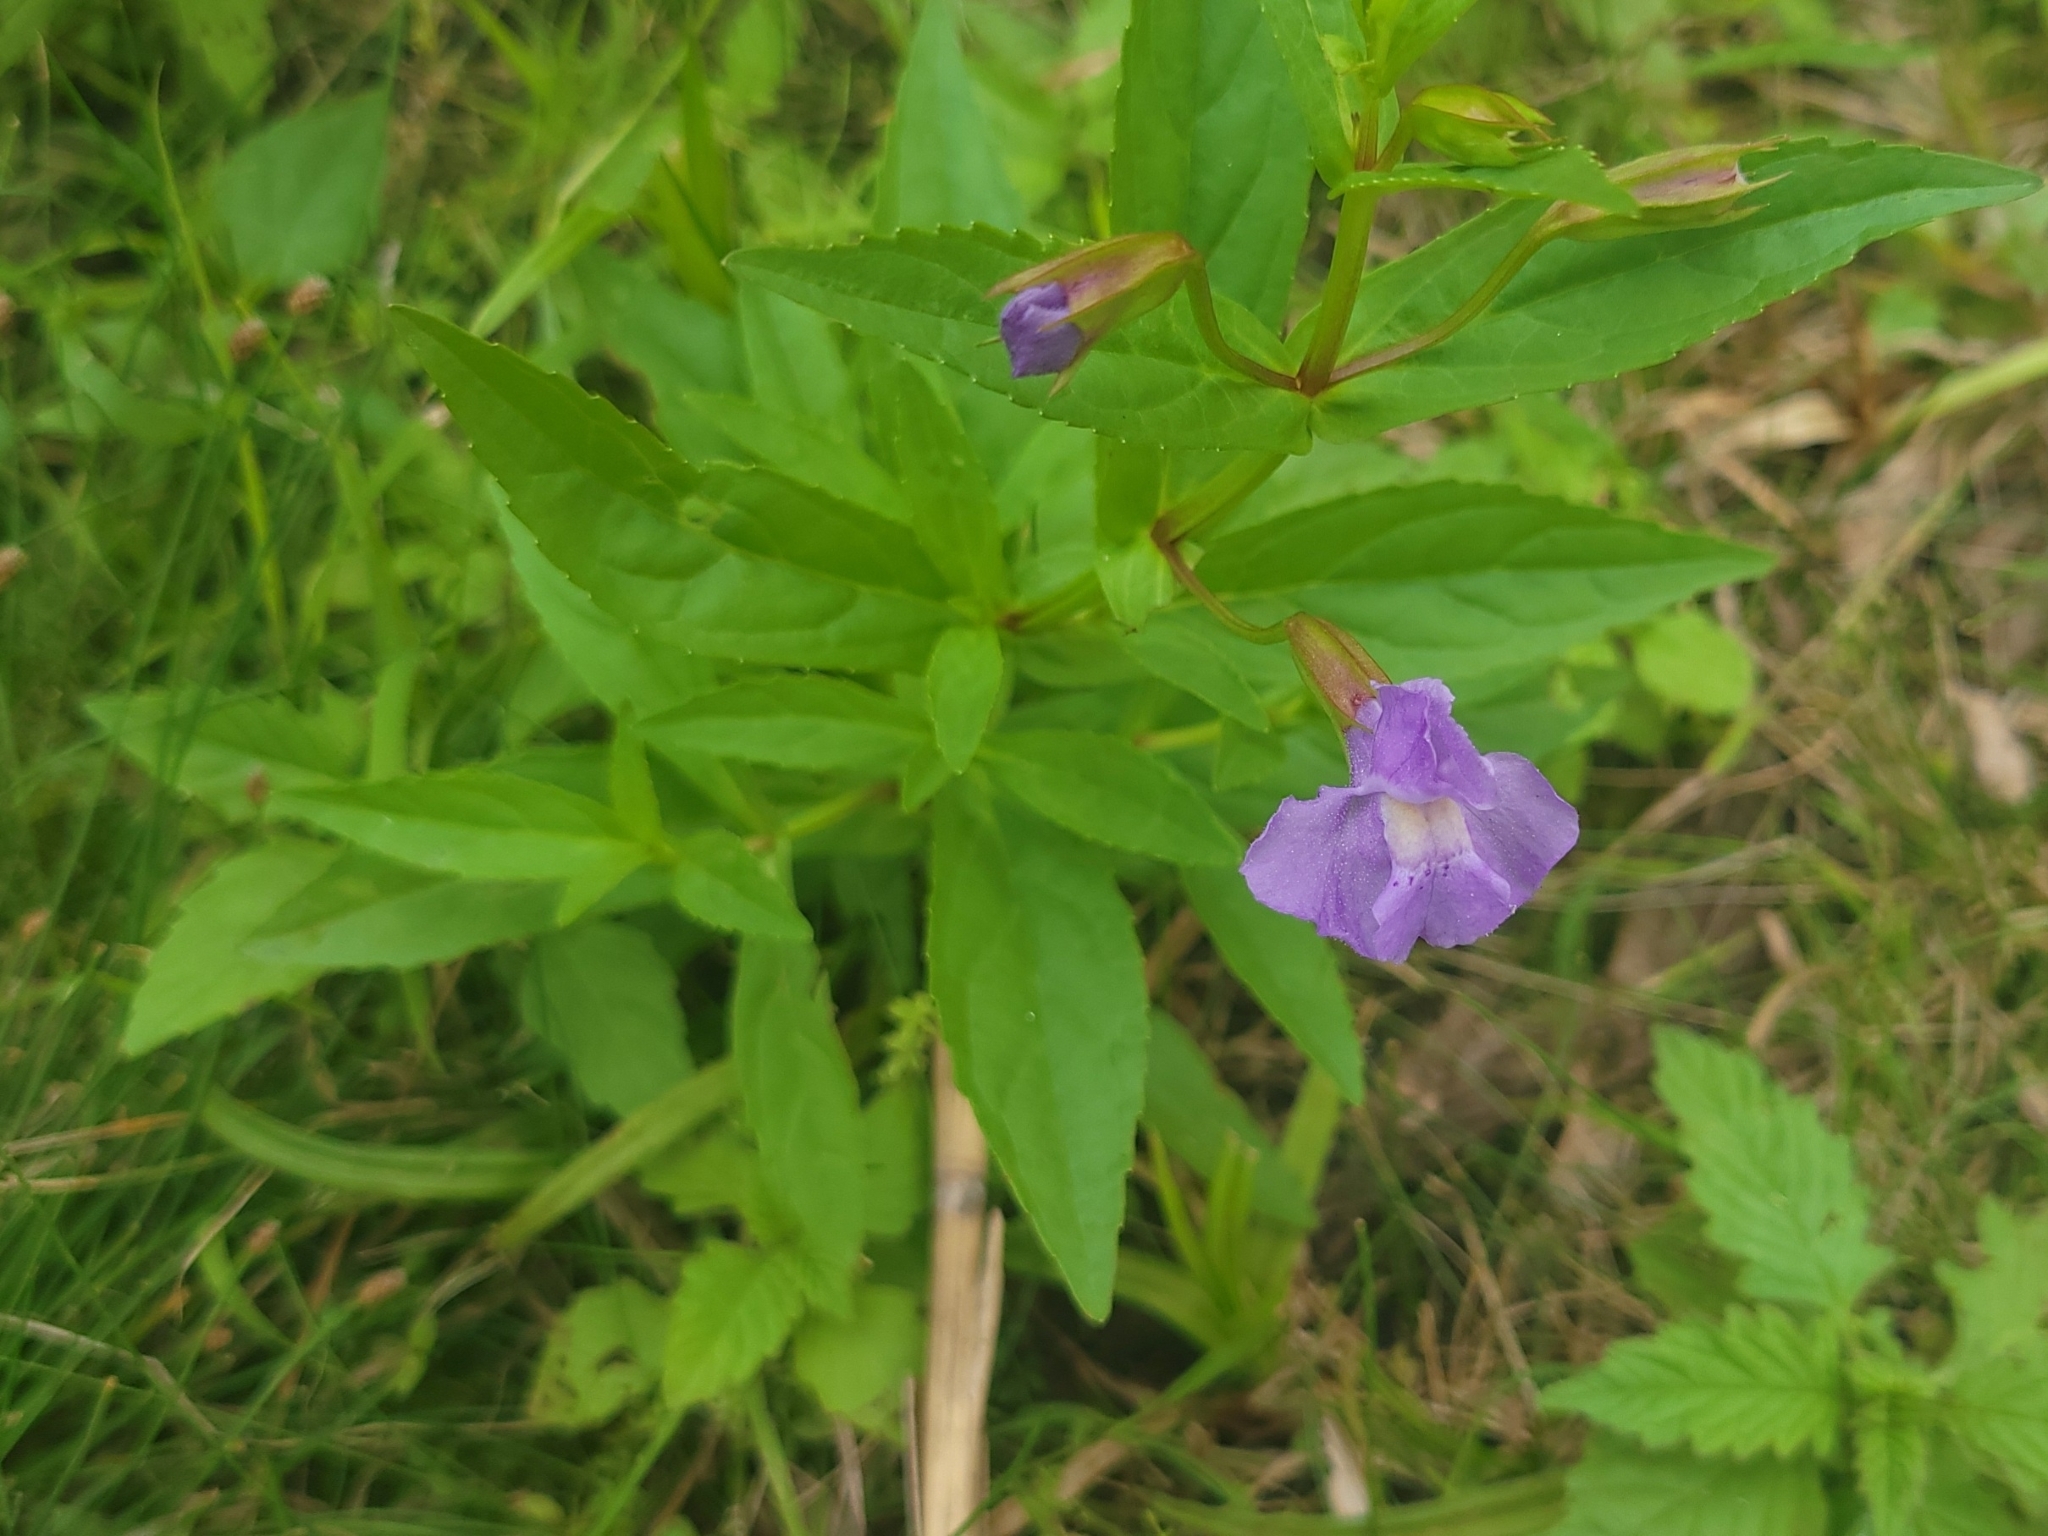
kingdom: Plantae
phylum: Tracheophyta
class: Magnoliopsida
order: Lamiales
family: Phrymaceae
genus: Mimulus
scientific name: Mimulus ringens
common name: Allegheny monkeyflower
